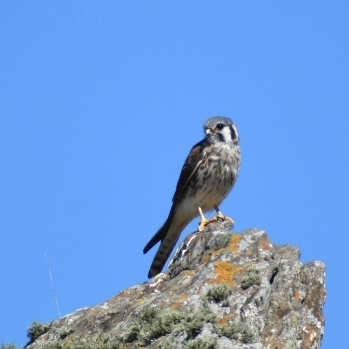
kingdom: Animalia
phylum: Chordata
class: Aves
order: Falconiformes
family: Falconidae
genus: Falco
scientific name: Falco sparverius
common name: American kestrel
